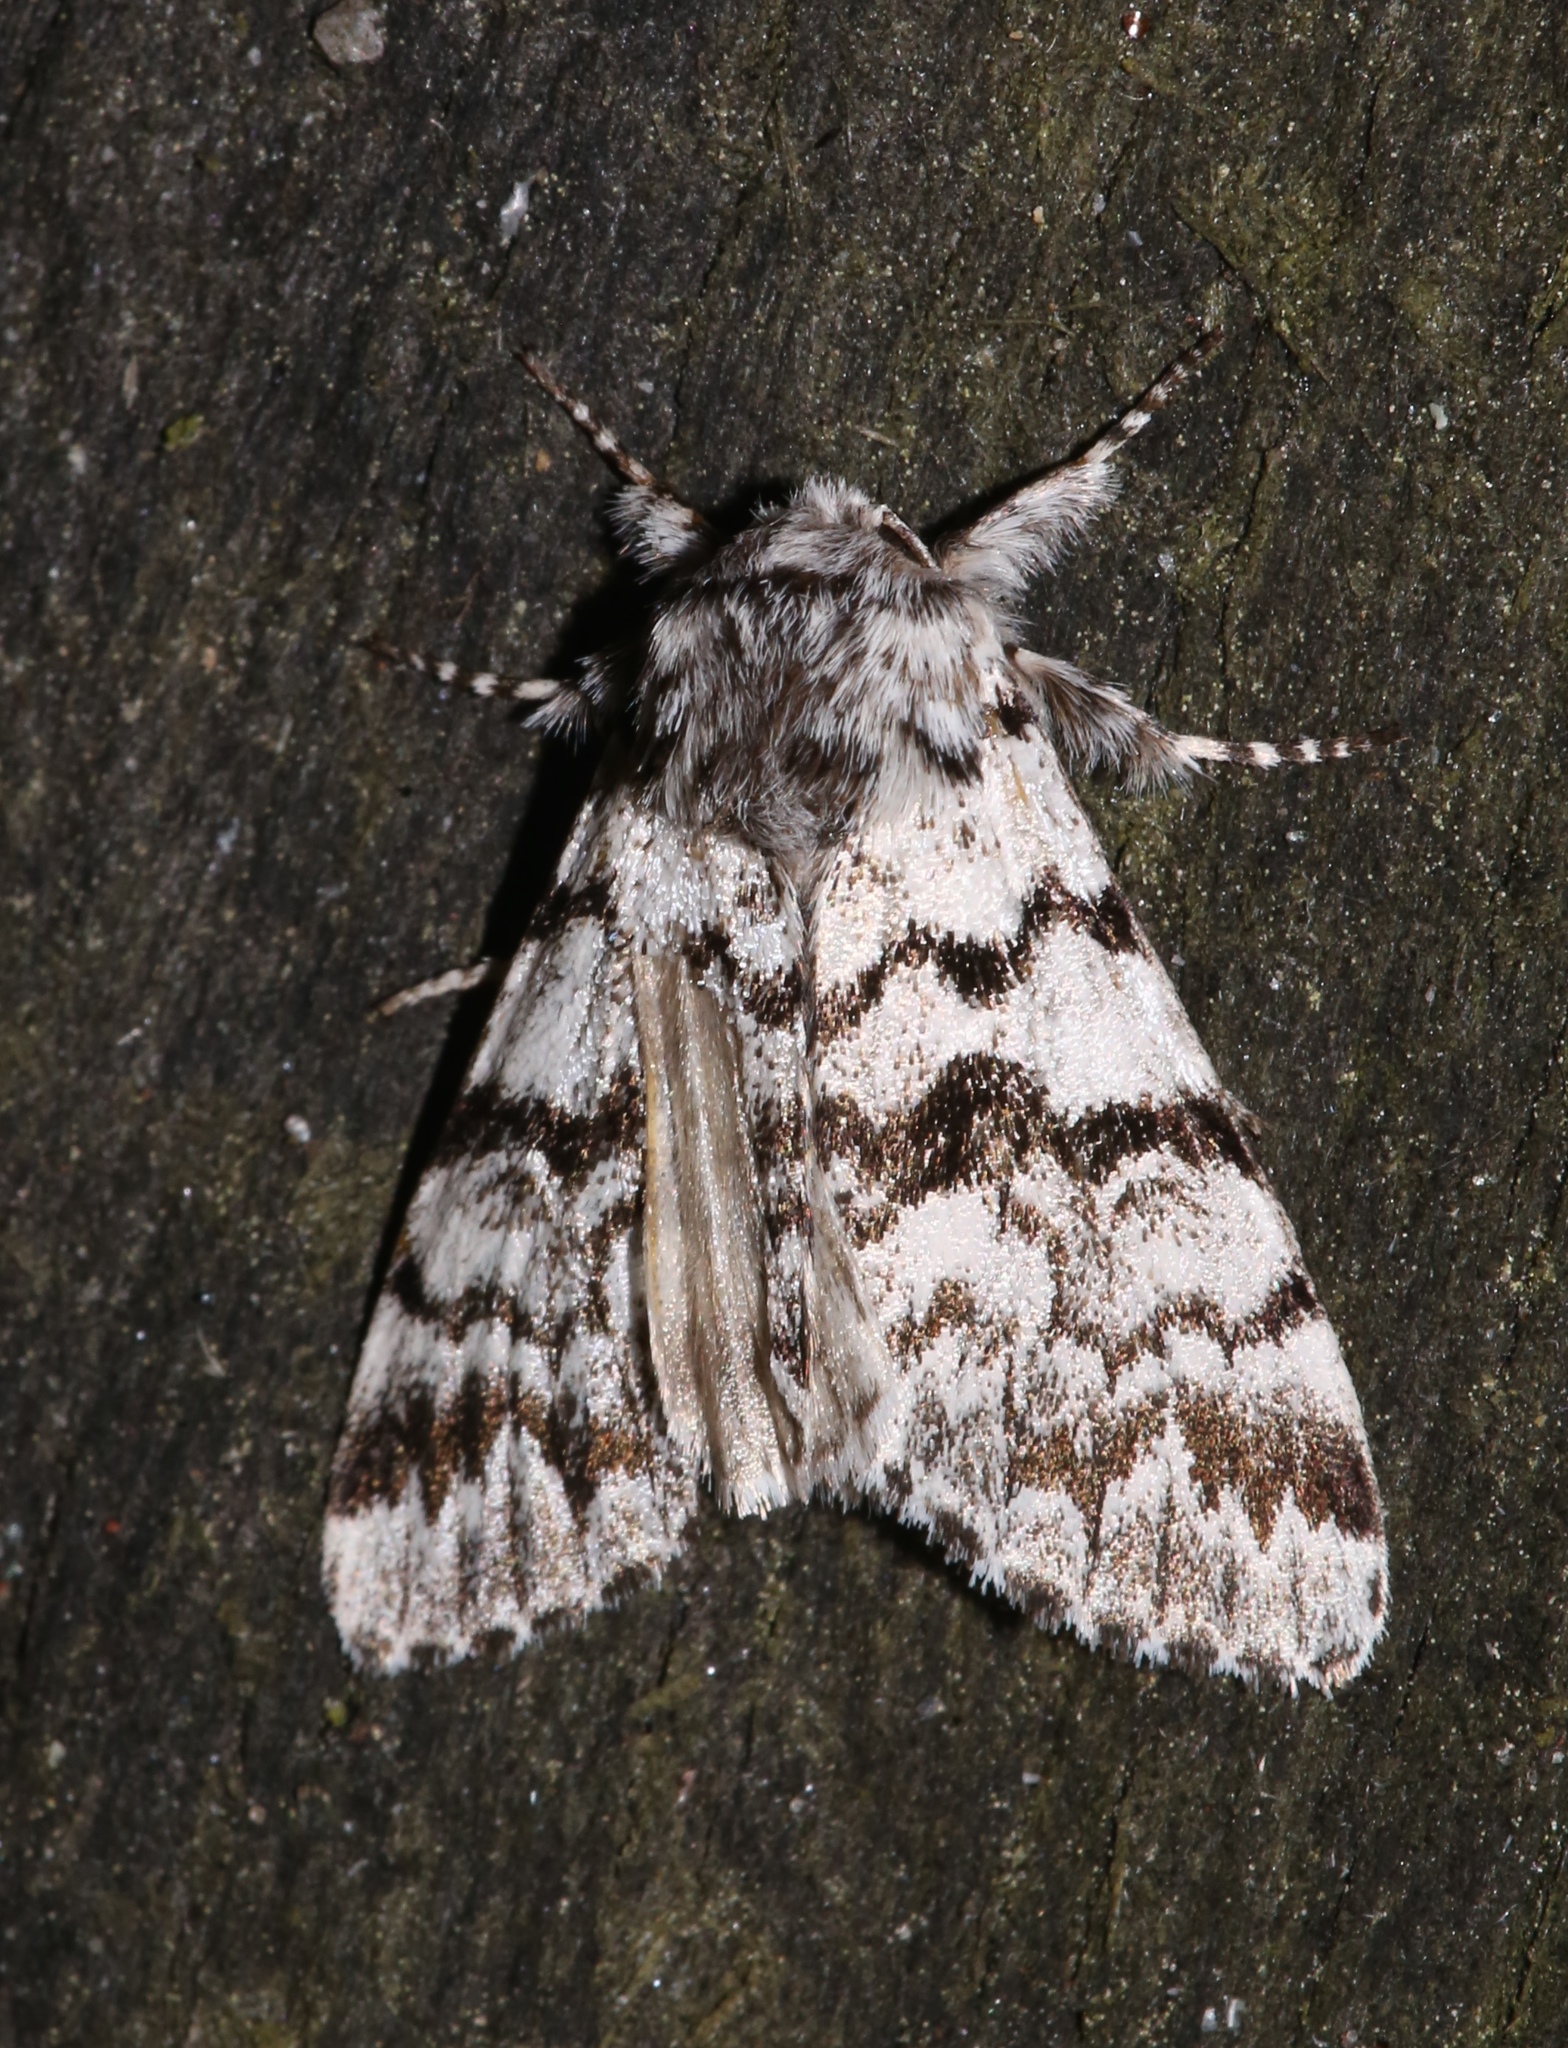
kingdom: Animalia
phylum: Arthropoda
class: Insecta
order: Lepidoptera
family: Noctuidae
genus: Panthea
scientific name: Panthea acronyctoides
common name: Black zigzag moth
